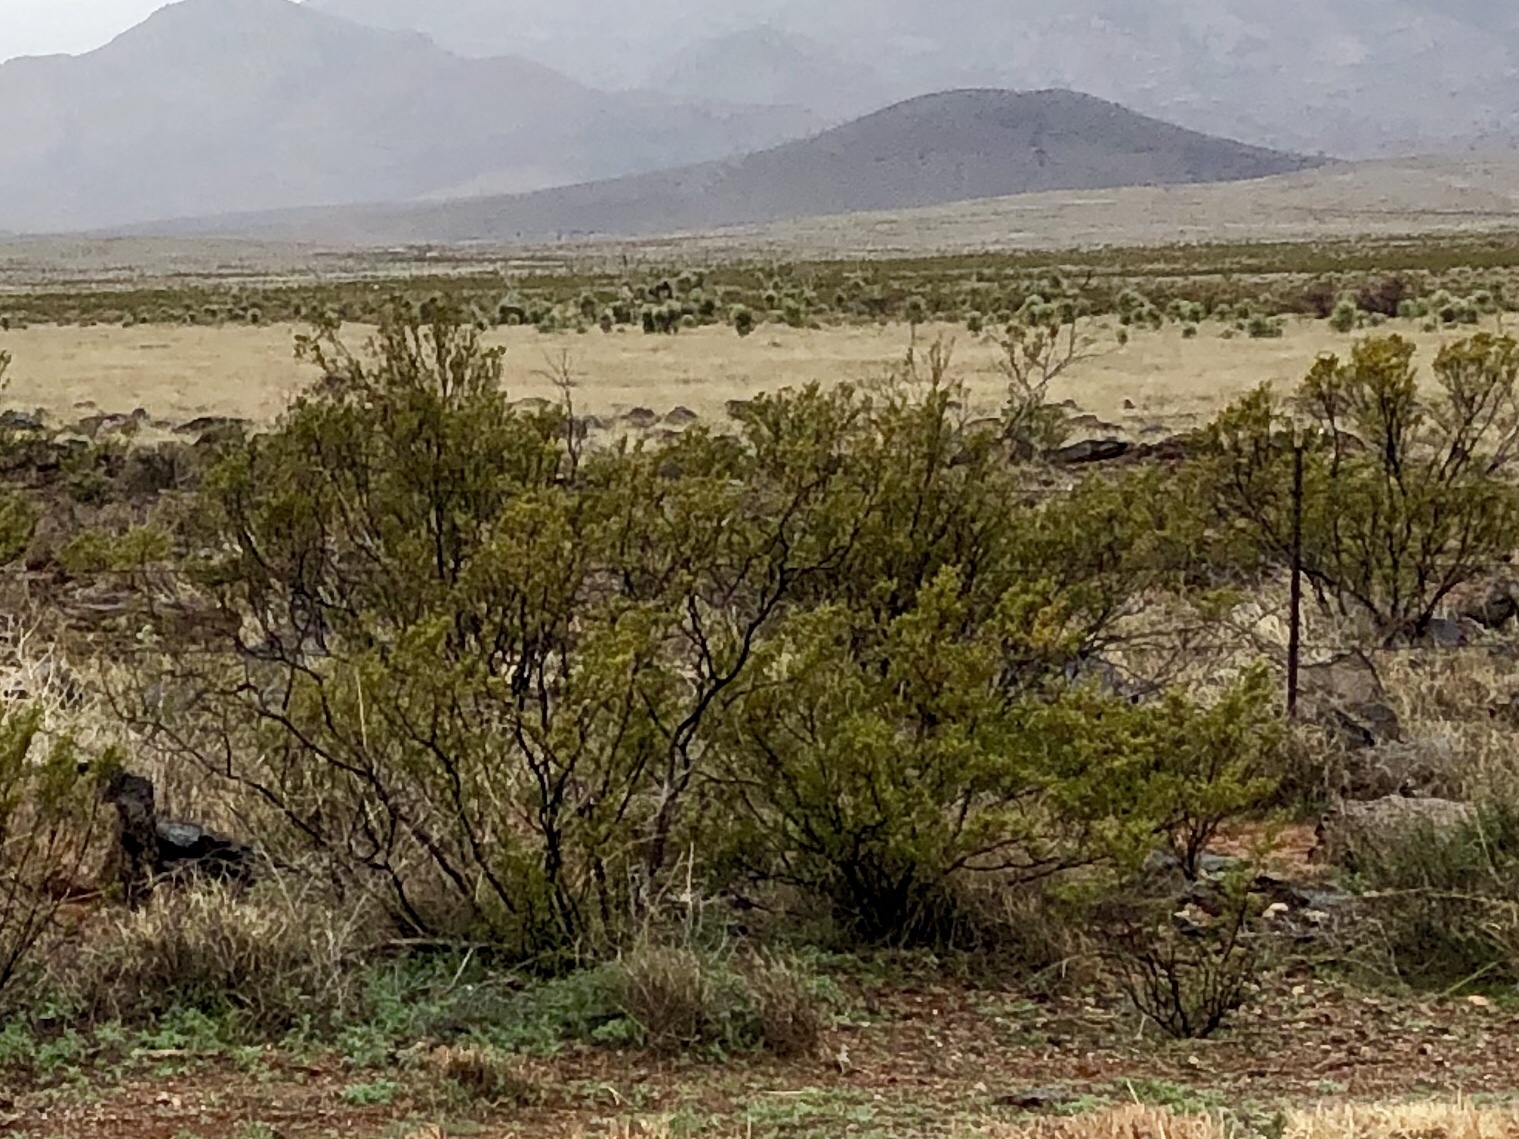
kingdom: Plantae
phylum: Tracheophyta
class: Magnoliopsida
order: Zygophyllales
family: Zygophyllaceae
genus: Larrea
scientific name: Larrea tridentata
